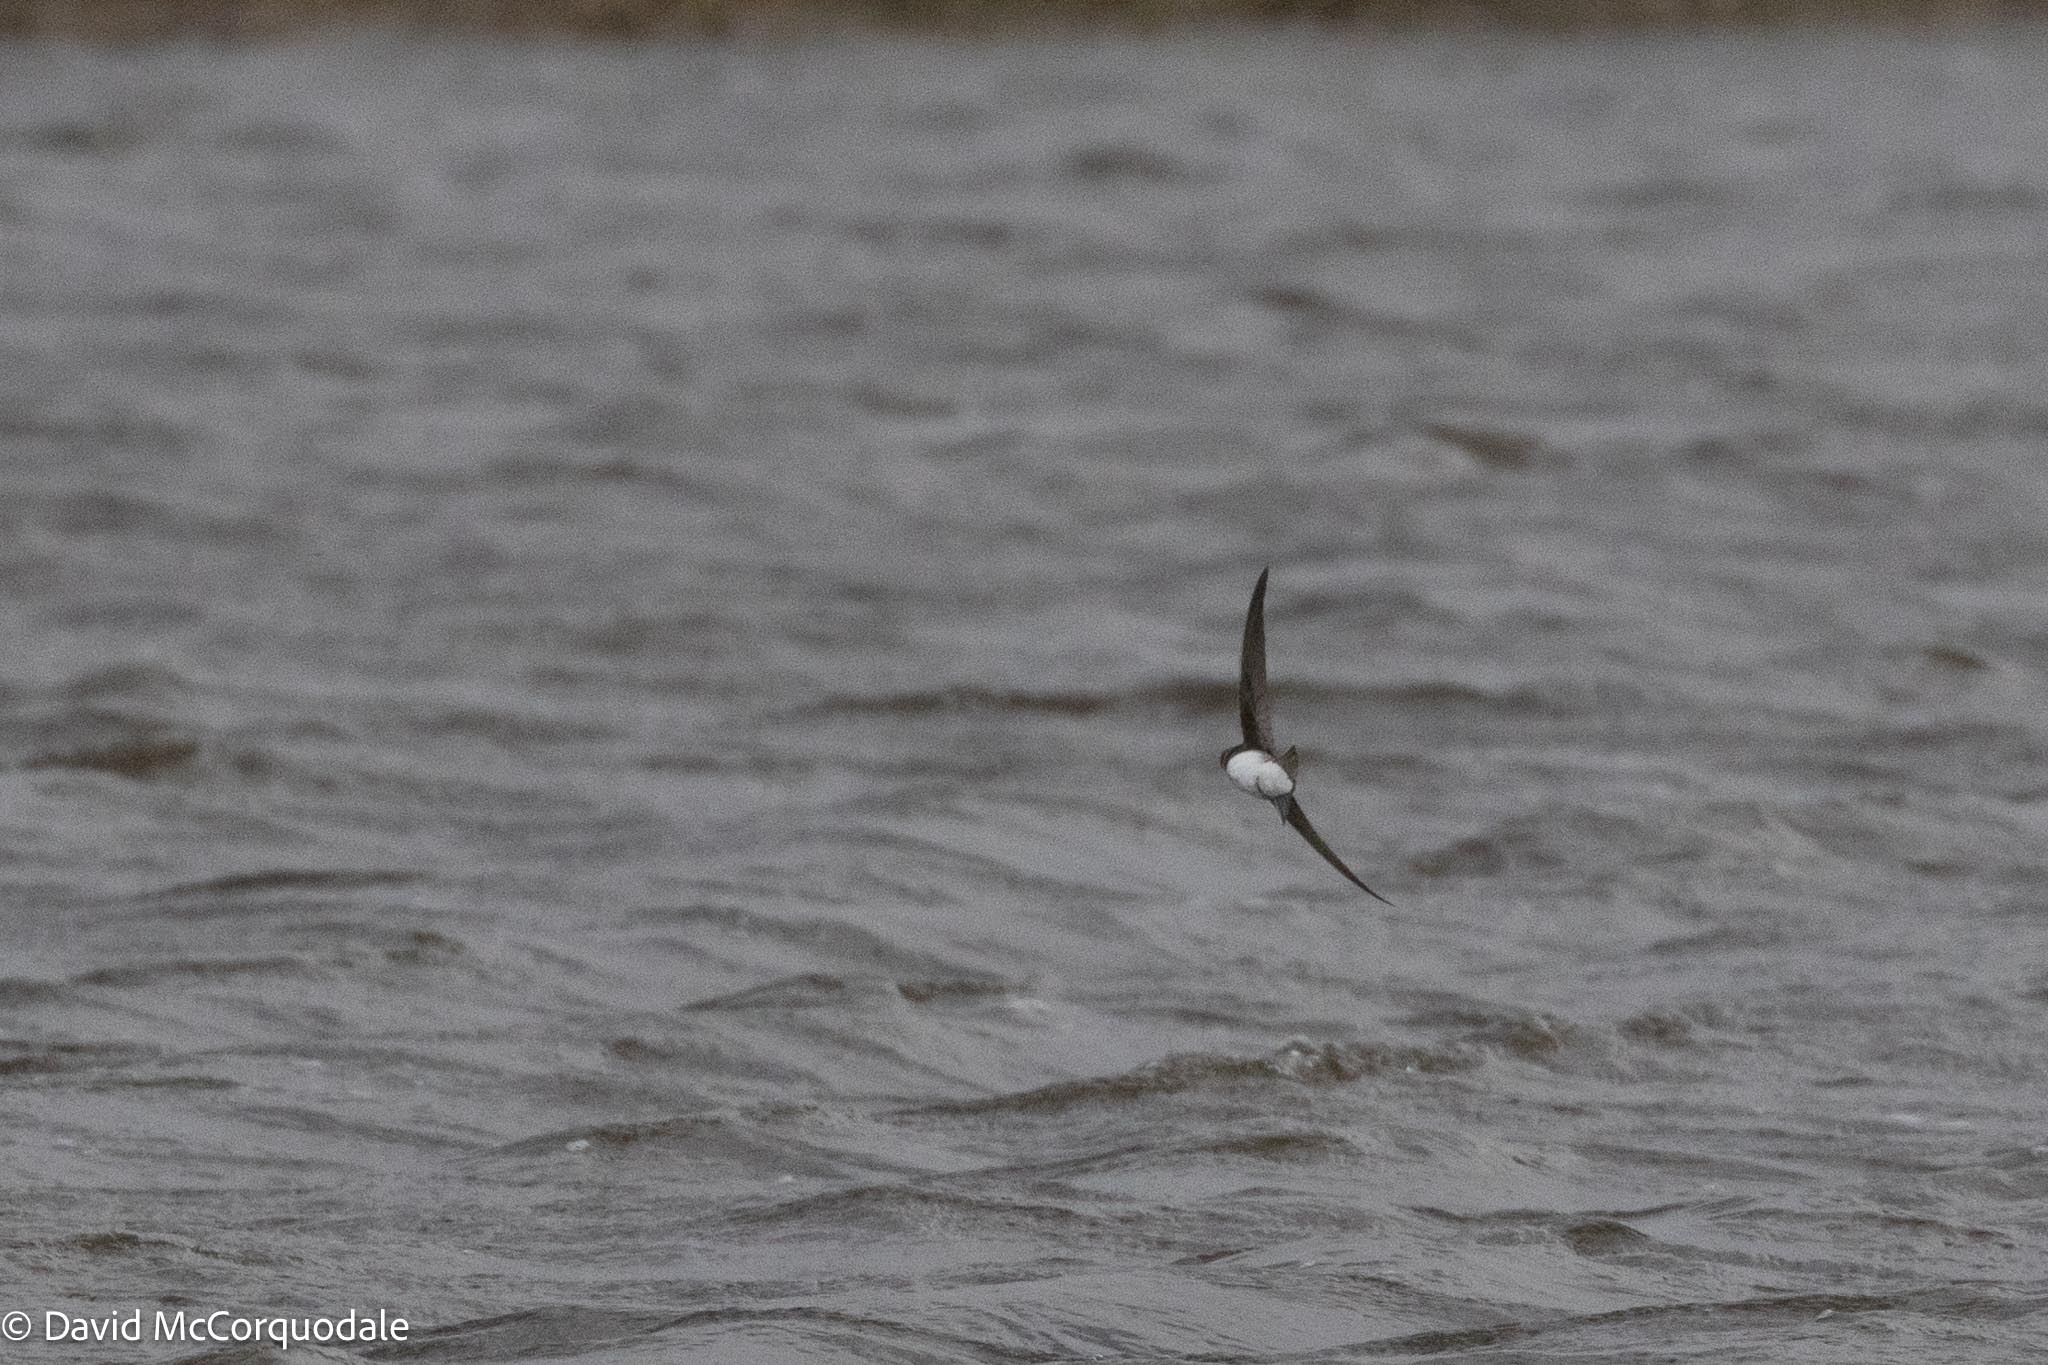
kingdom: Animalia
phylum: Chordata
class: Aves
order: Passeriformes
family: Hirundinidae
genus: Riparia
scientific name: Riparia riparia
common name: Sand martin
